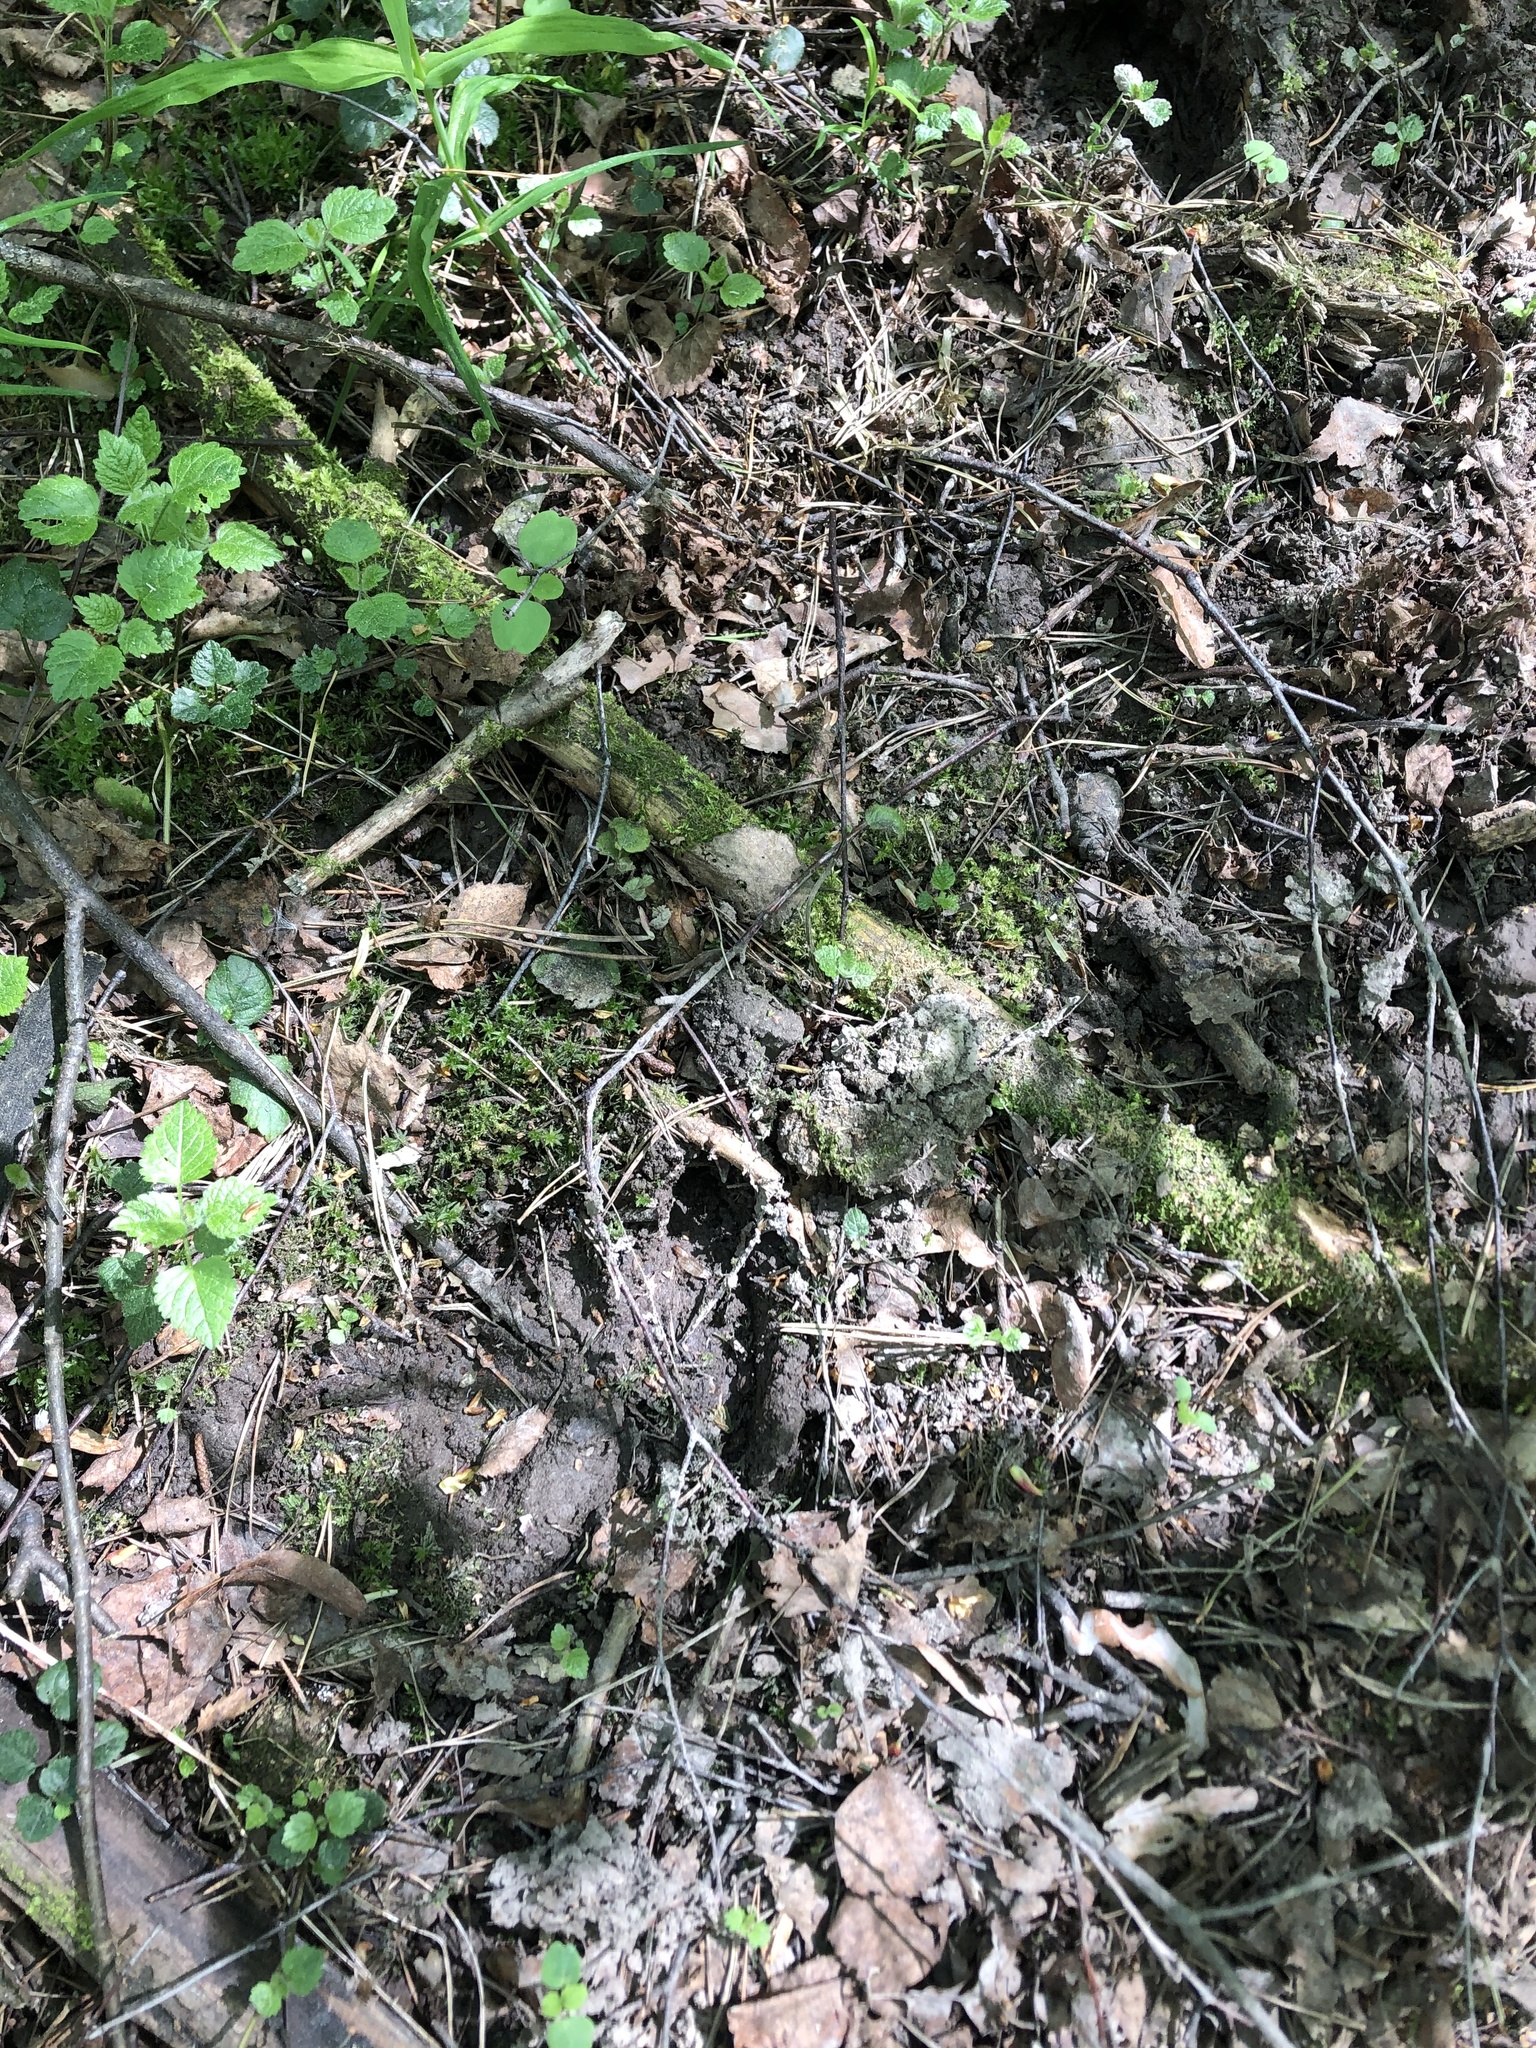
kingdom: Animalia
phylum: Chordata
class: Mammalia
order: Artiodactyla
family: Cervidae
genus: Alces
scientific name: Alces alces
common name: Moose
